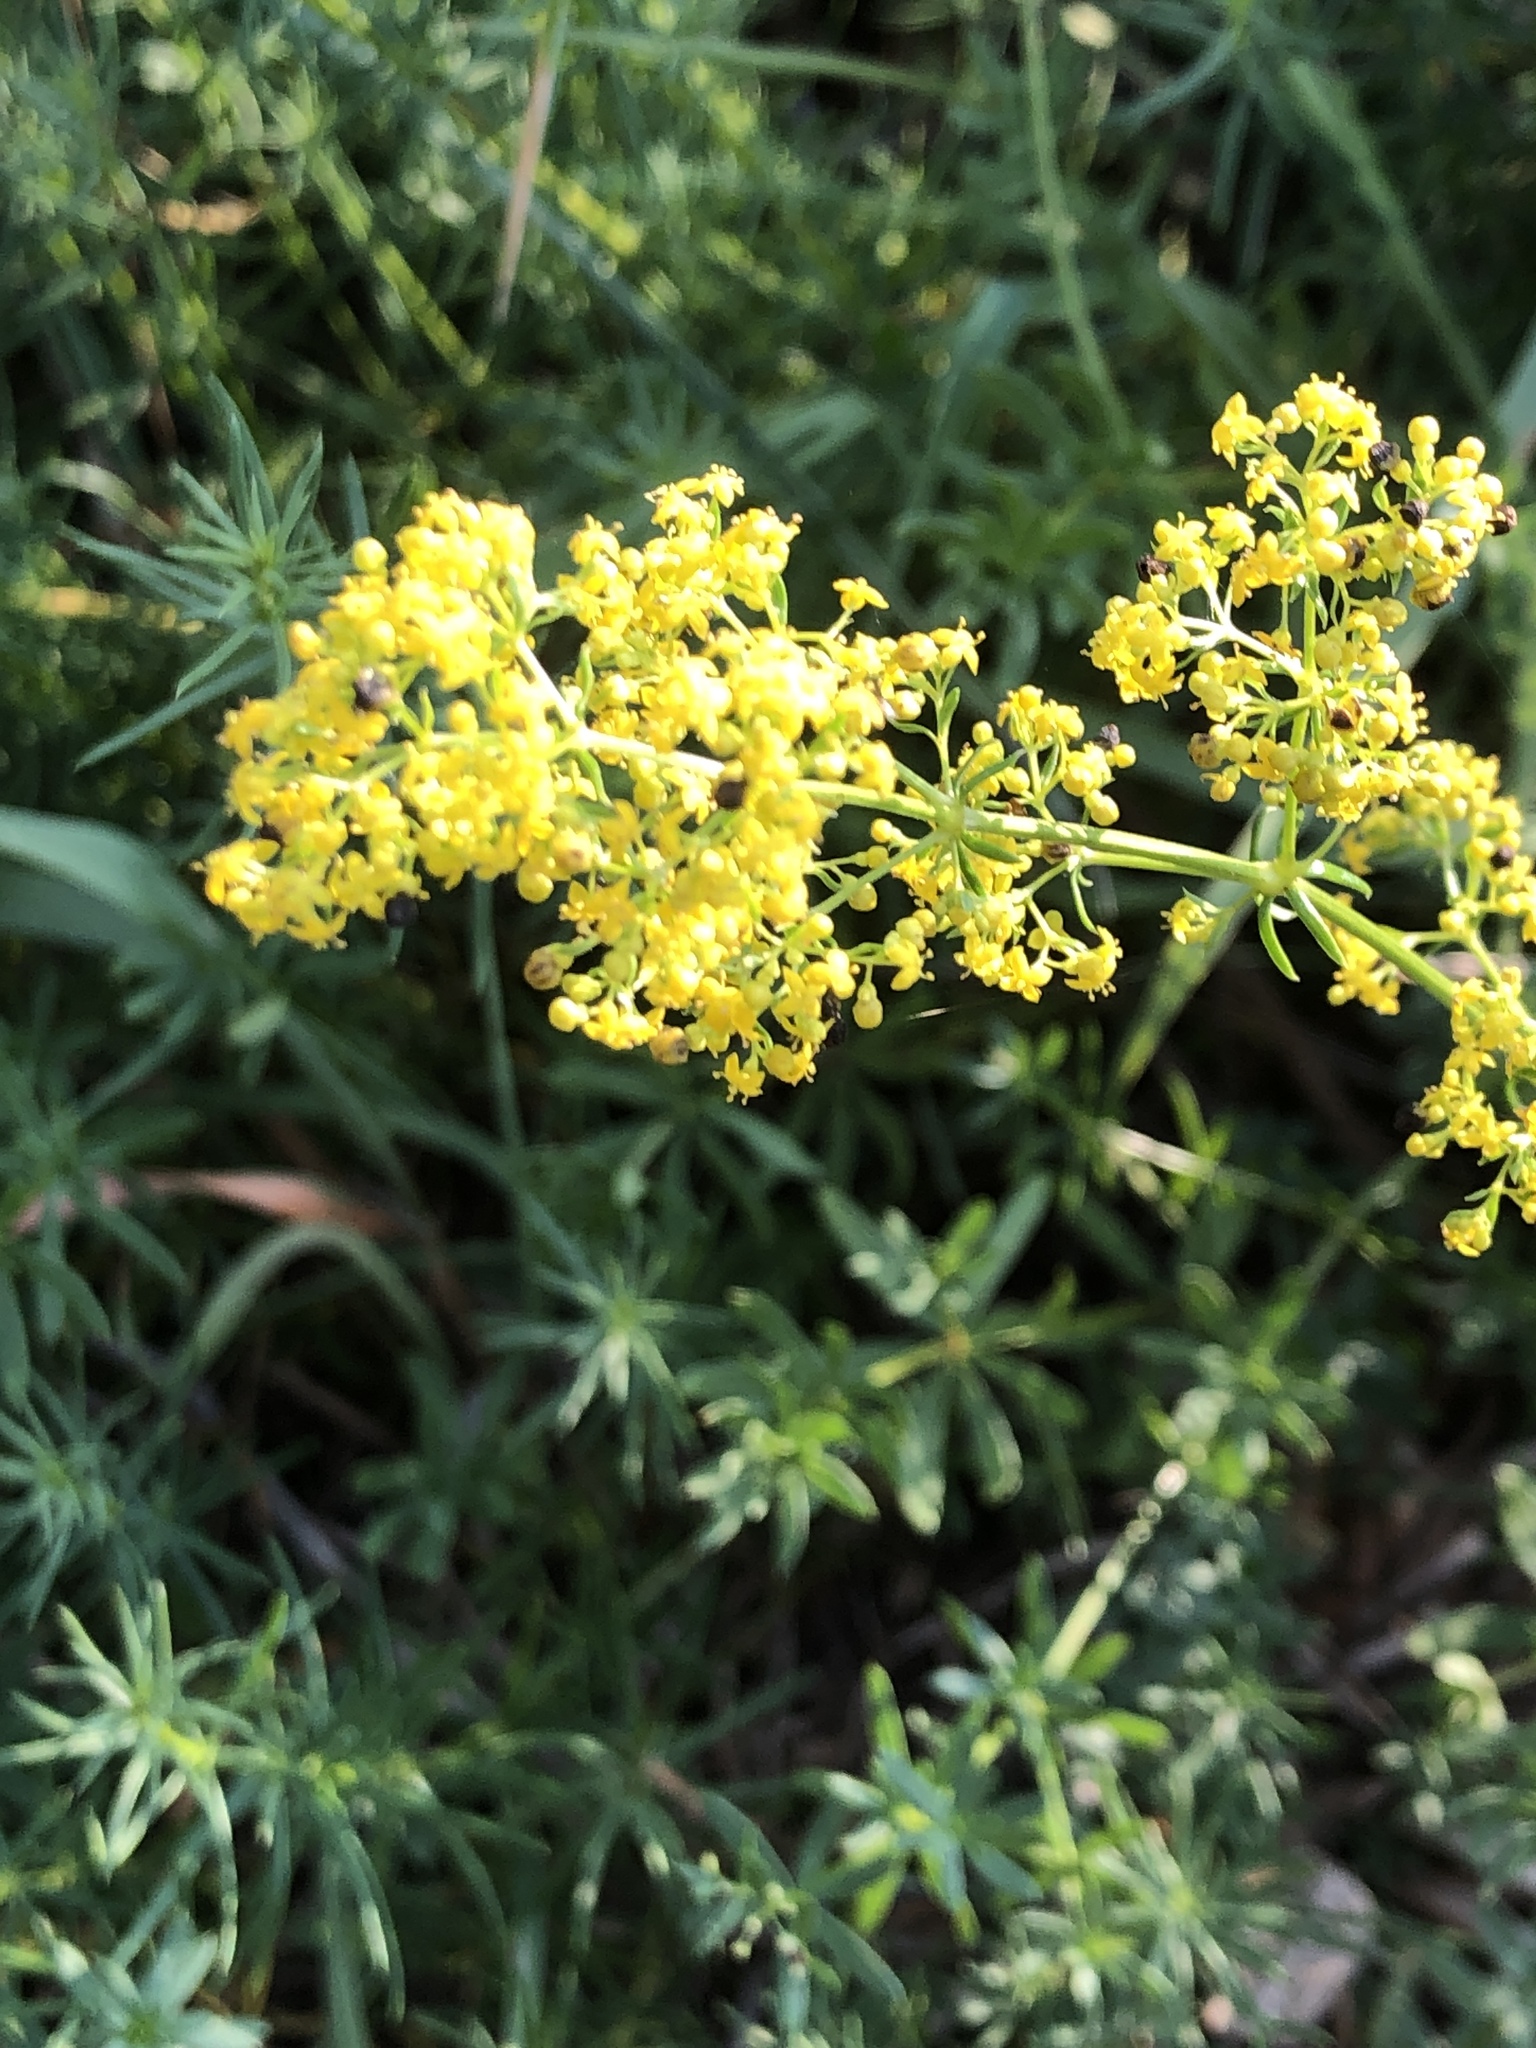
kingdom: Plantae
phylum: Tracheophyta
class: Magnoliopsida
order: Gentianales
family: Rubiaceae
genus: Galium
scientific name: Galium verum
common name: Lady's bedstraw
